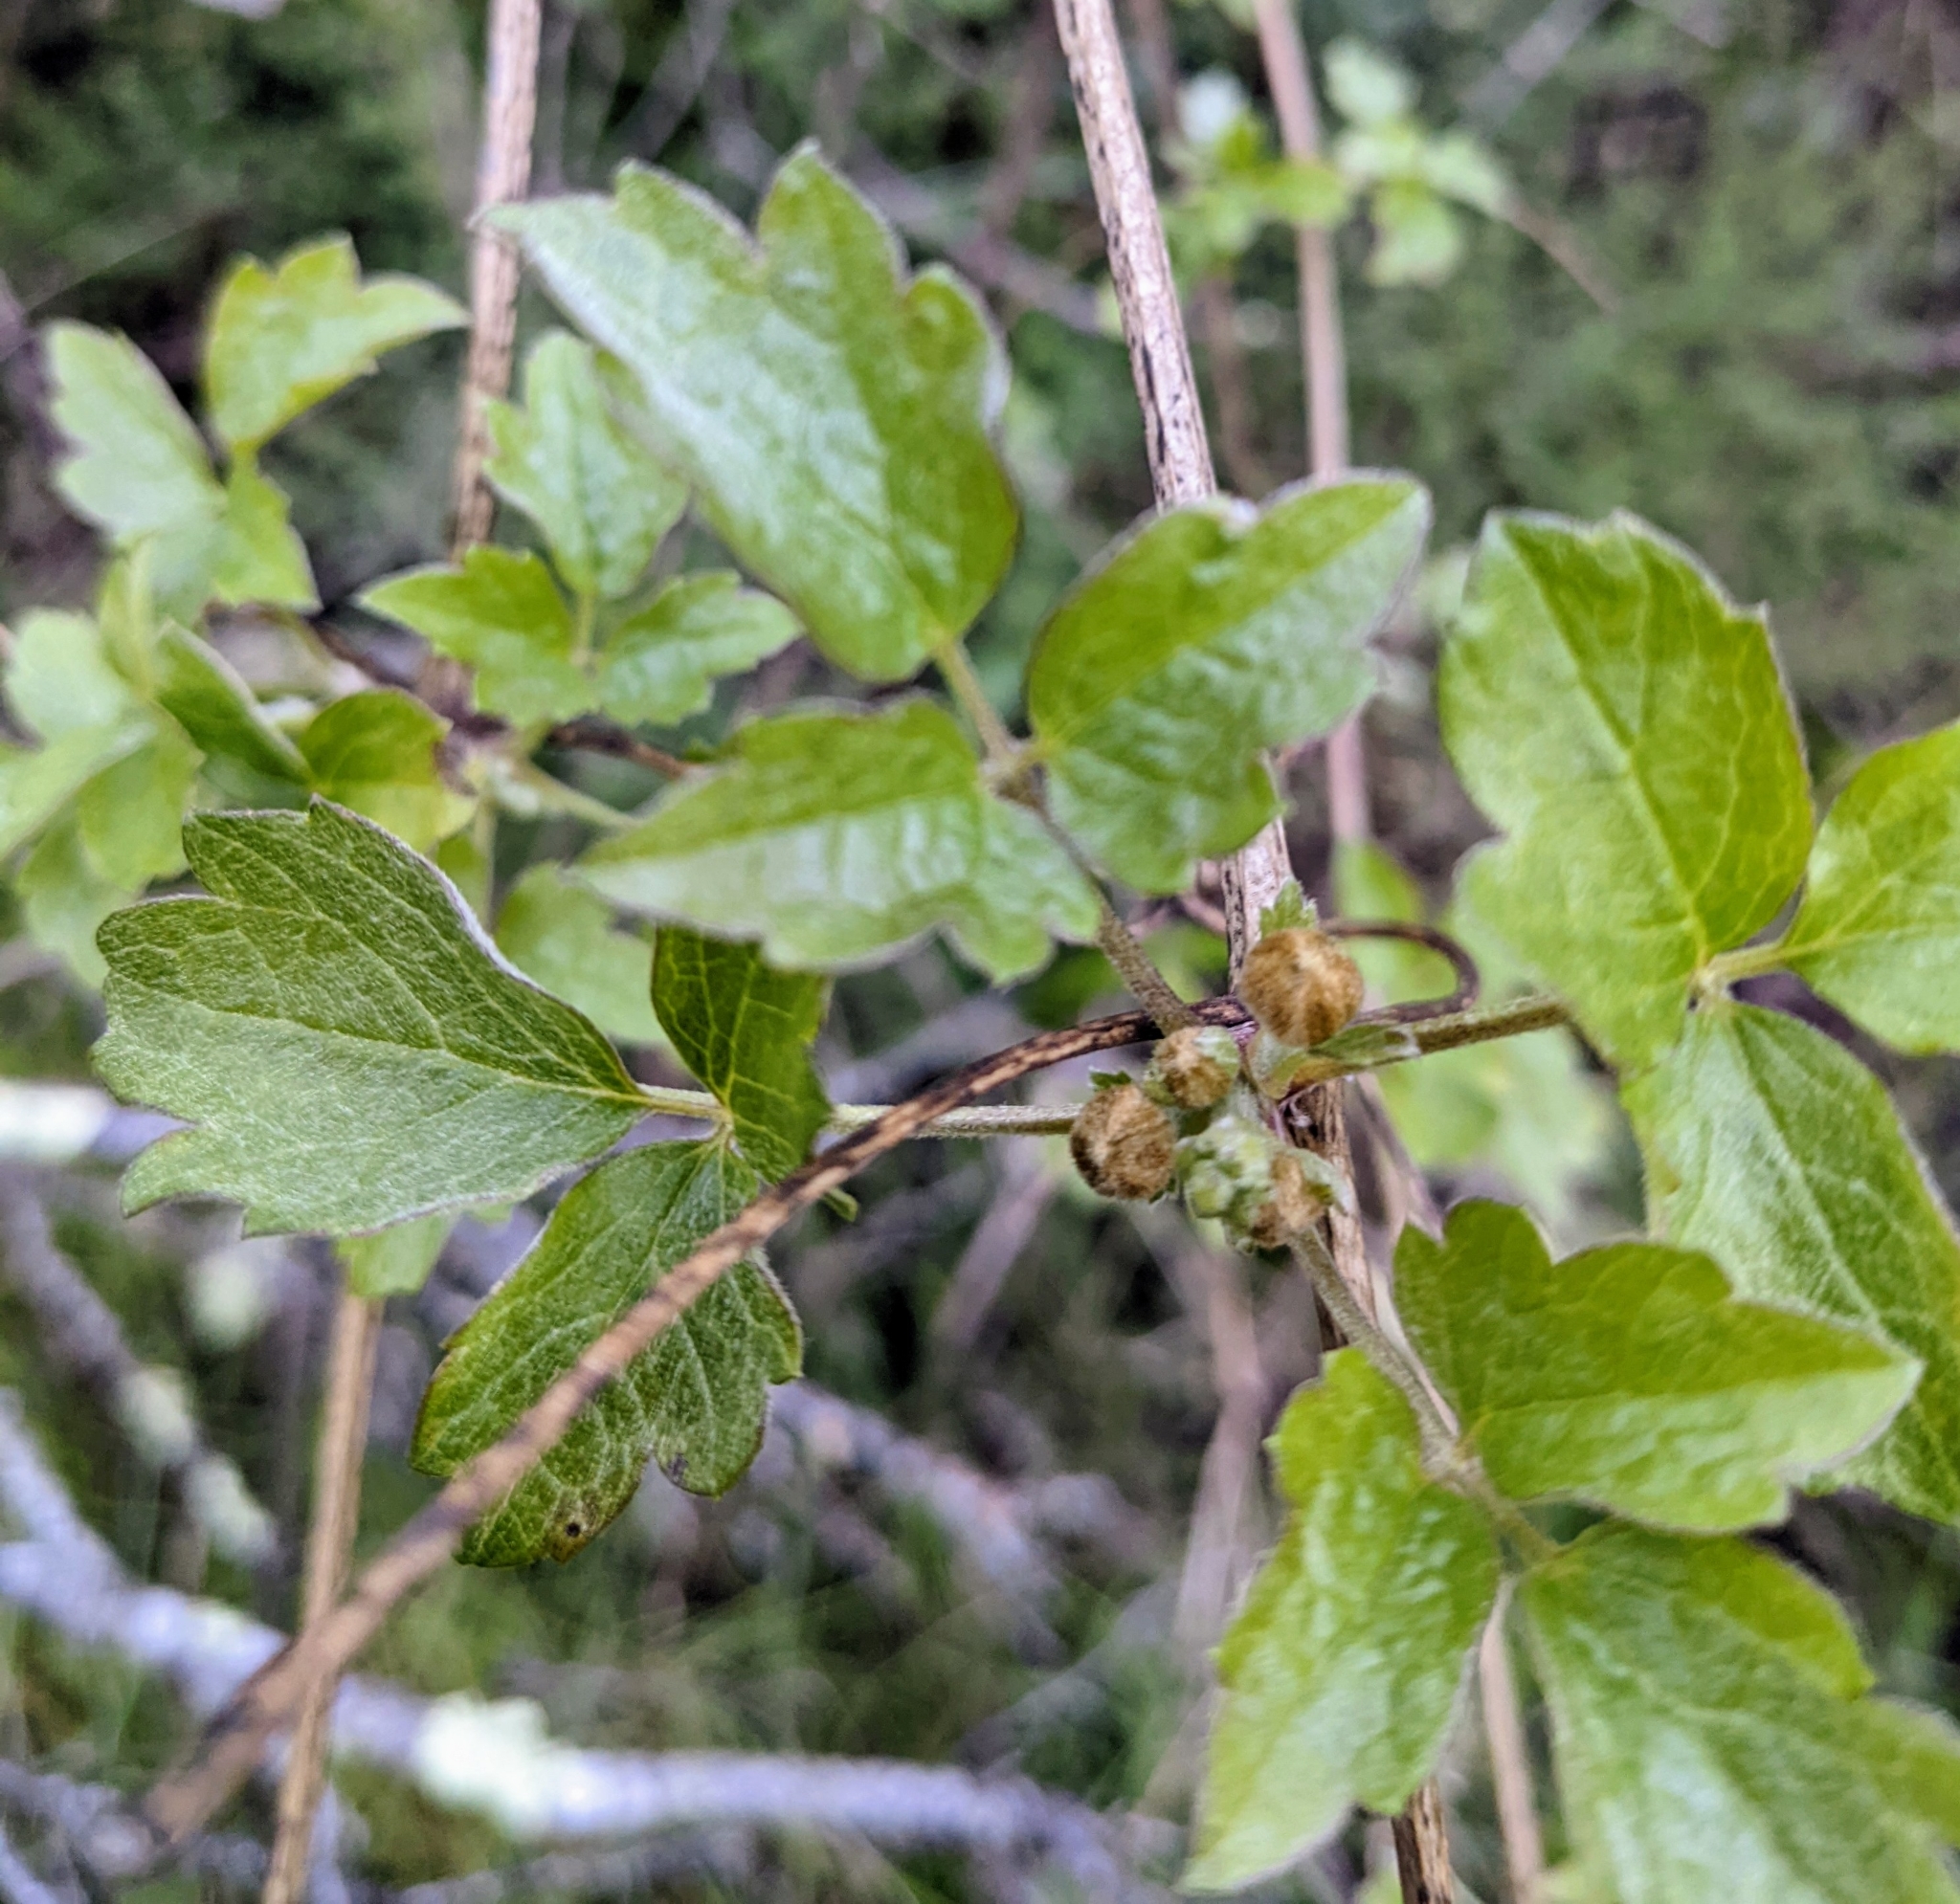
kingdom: Plantae
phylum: Tracheophyta
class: Magnoliopsida
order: Ranunculales
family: Ranunculaceae
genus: Clematis
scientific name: Clematis lasiantha
